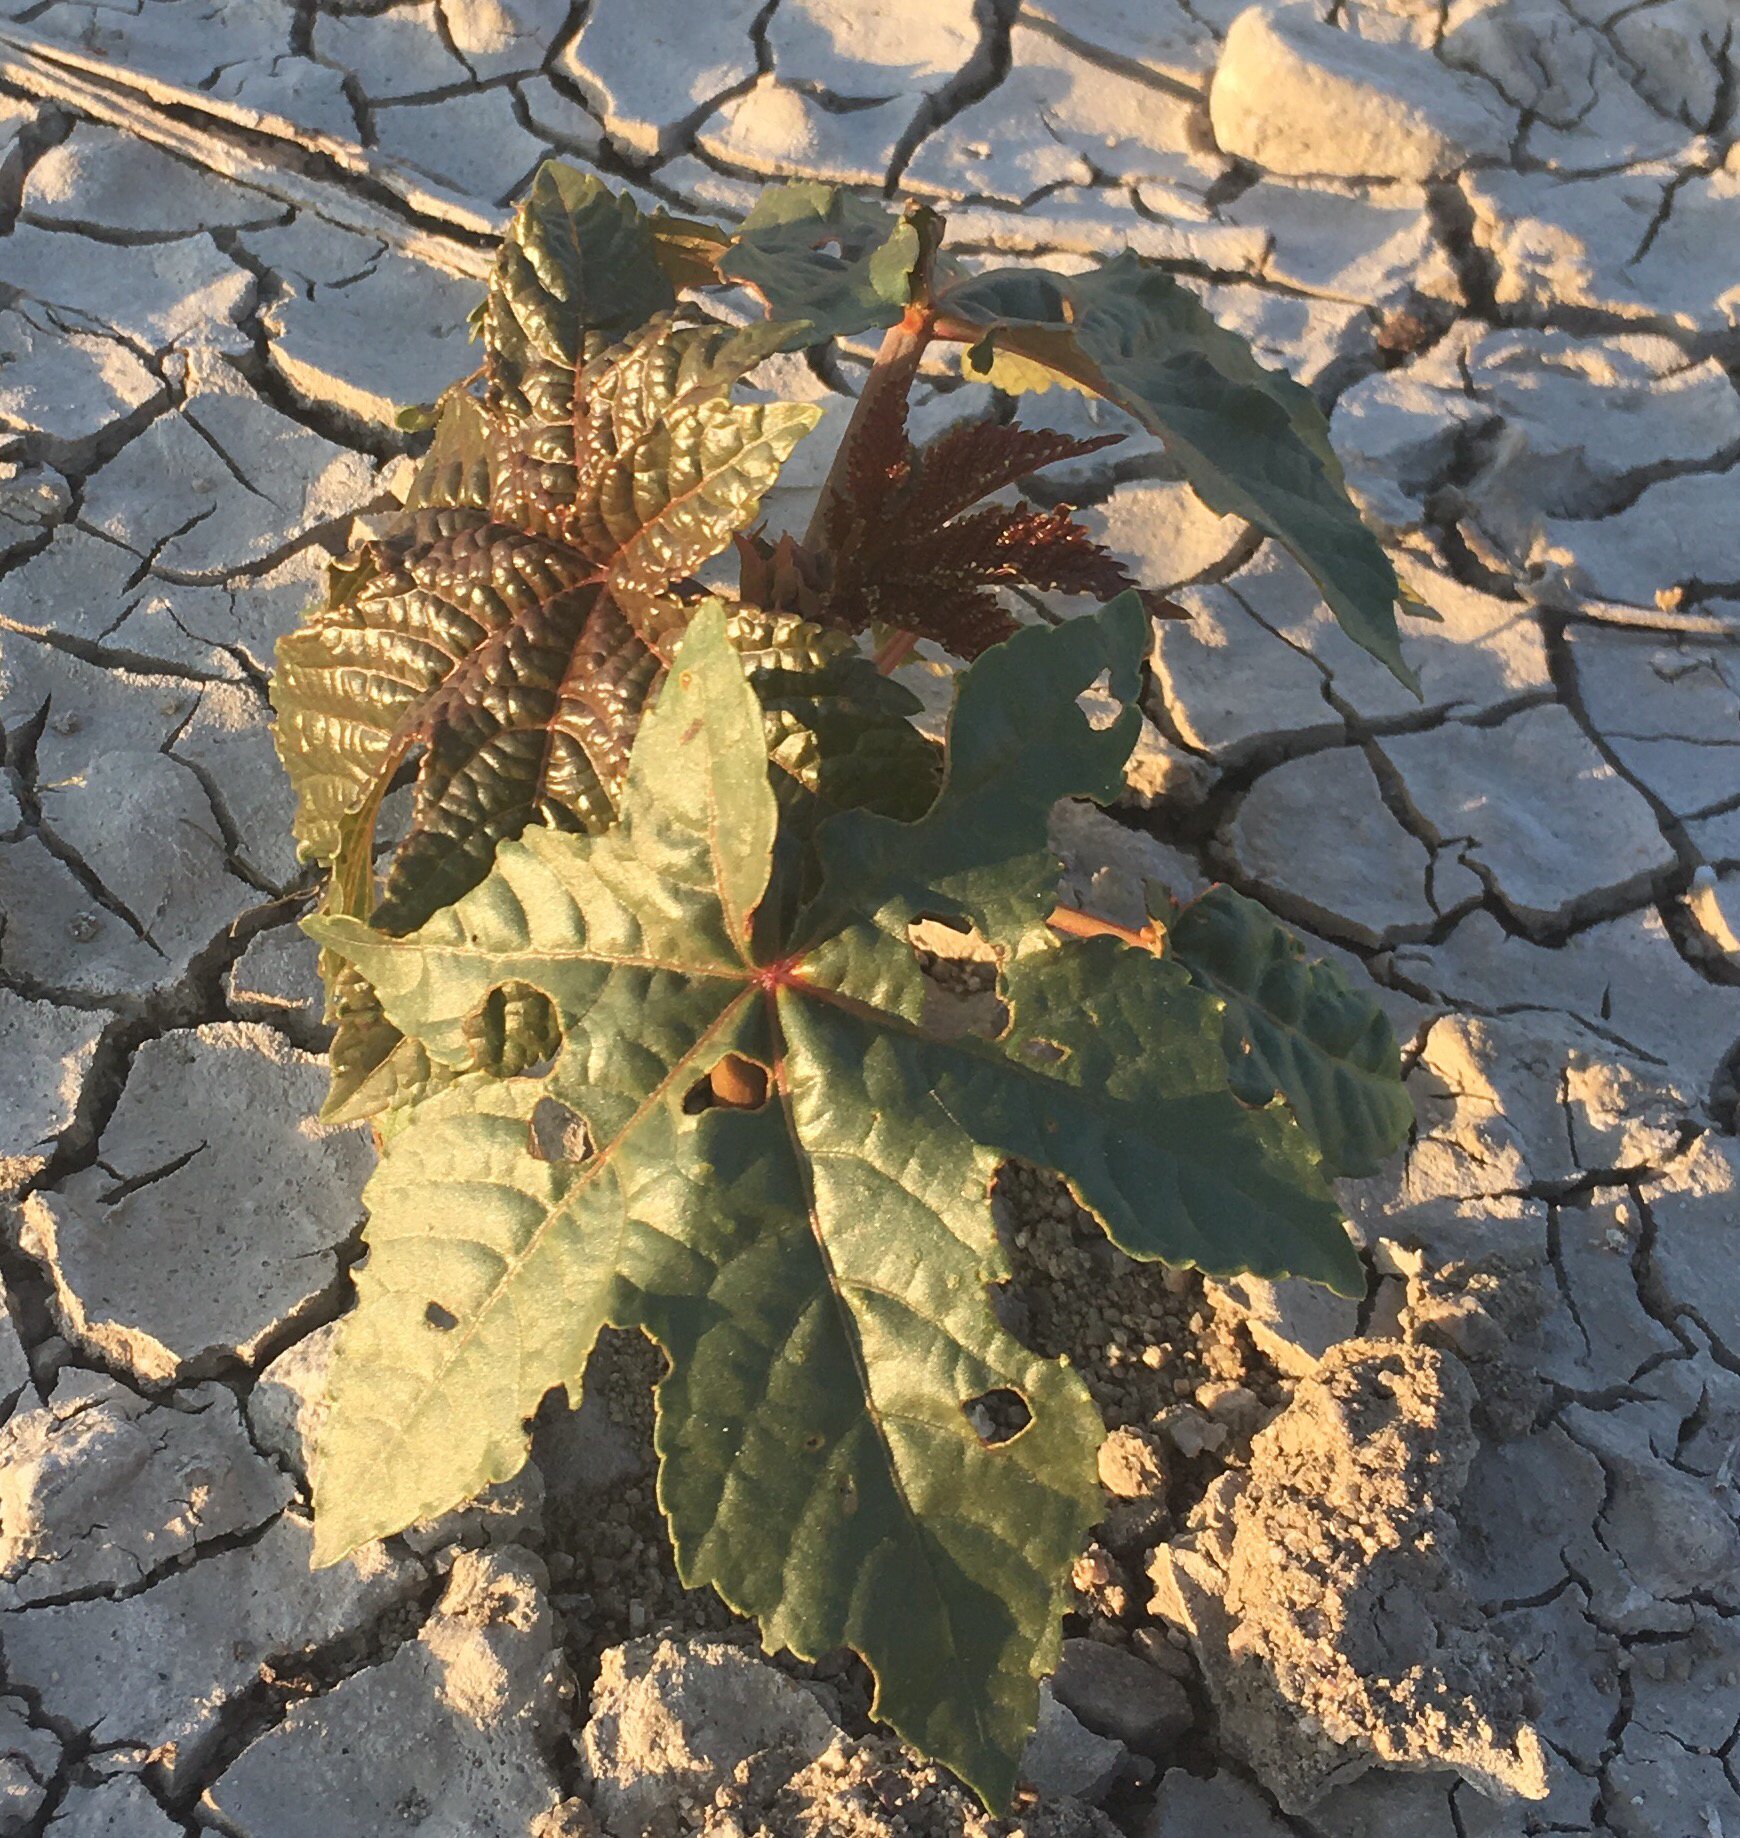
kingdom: Plantae
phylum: Tracheophyta
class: Magnoliopsida
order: Malpighiales
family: Euphorbiaceae
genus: Ricinus
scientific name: Ricinus communis
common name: Castor-oil-plant
